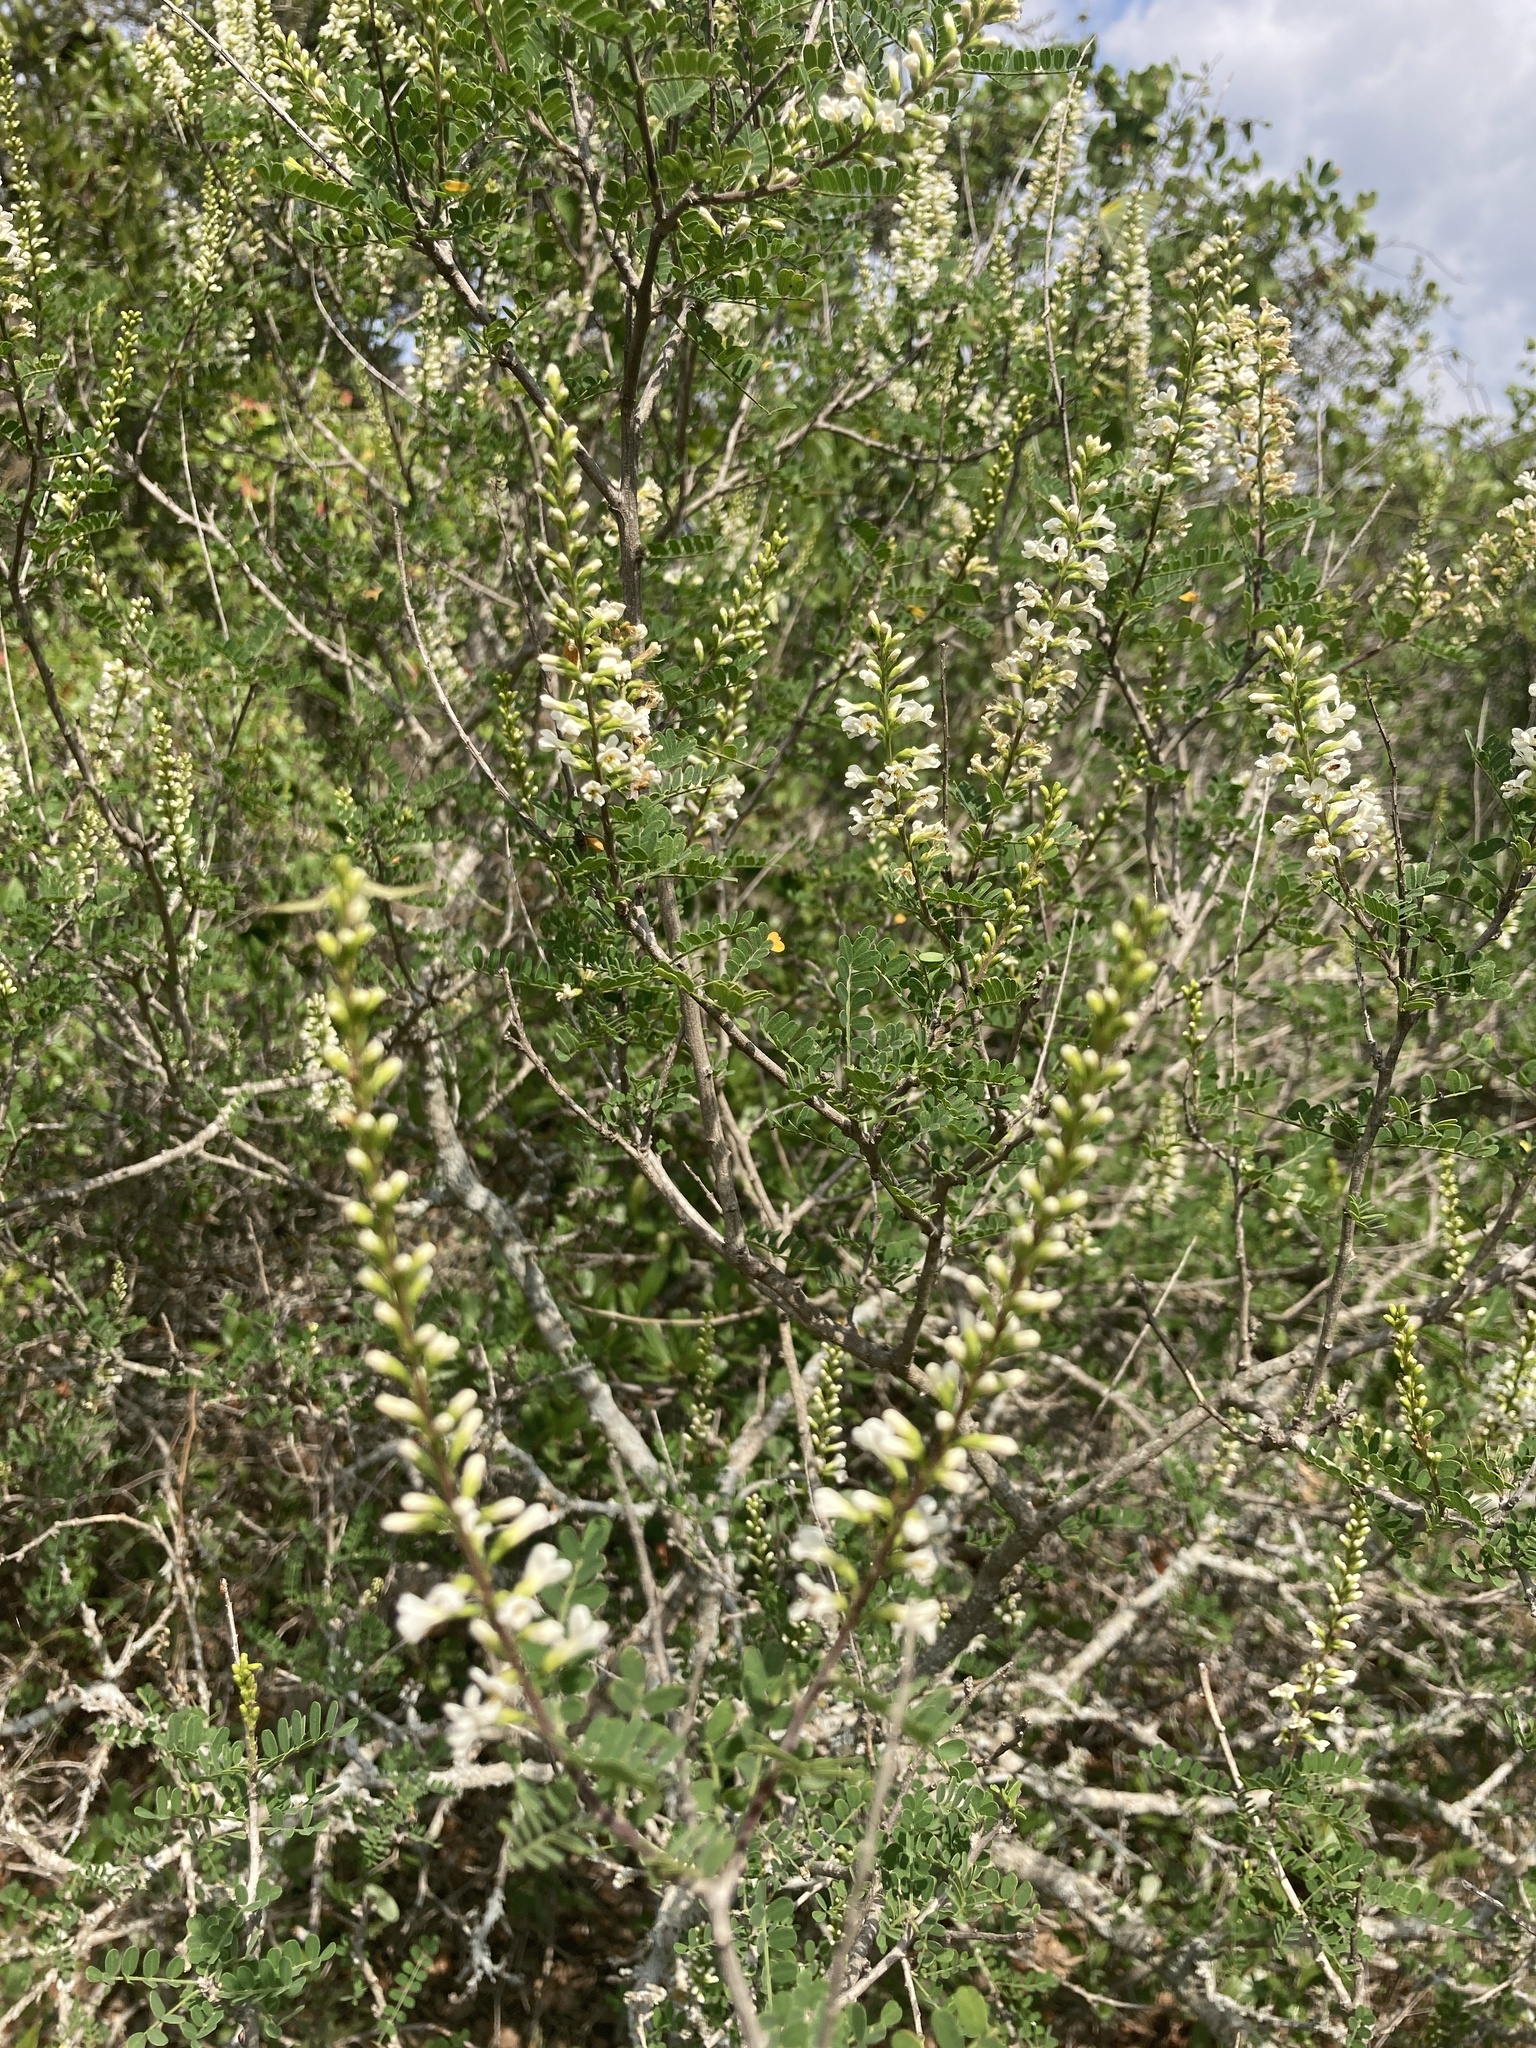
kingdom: Plantae
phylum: Tracheophyta
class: Magnoliopsida
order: Fabales
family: Fabaceae
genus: Eysenhardtia
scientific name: Eysenhardtia texana
